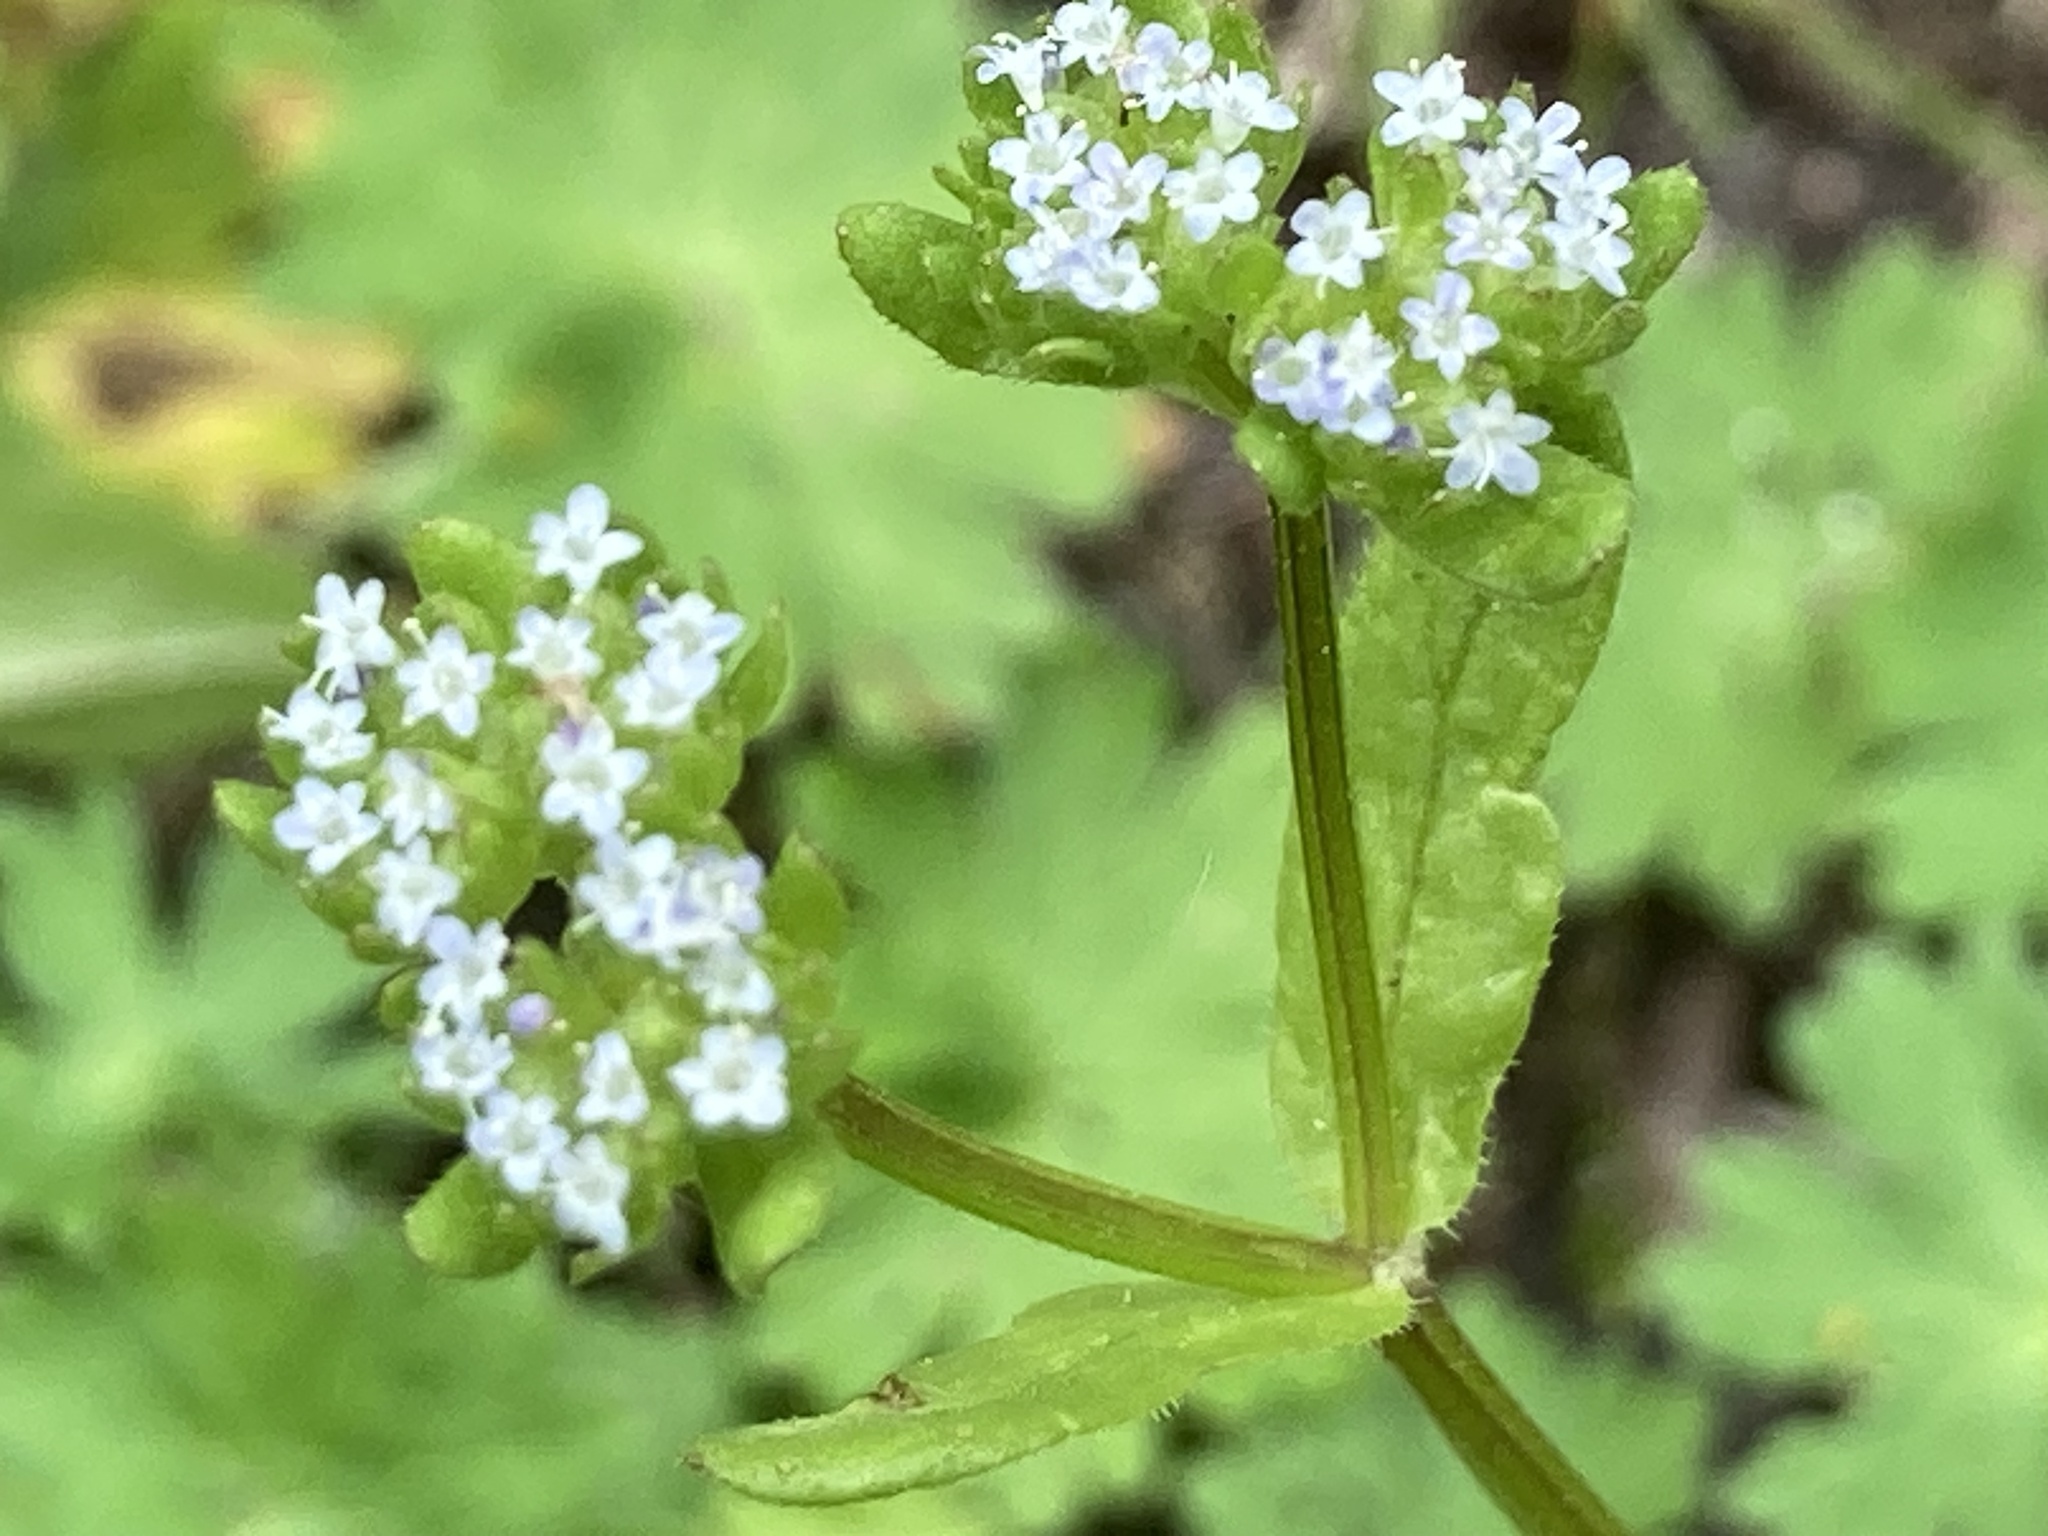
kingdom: Plantae
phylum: Tracheophyta
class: Magnoliopsida
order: Dipsacales
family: Caprifoliaceae
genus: Valerianella
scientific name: Valerianella locusta
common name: Common cornsalad
